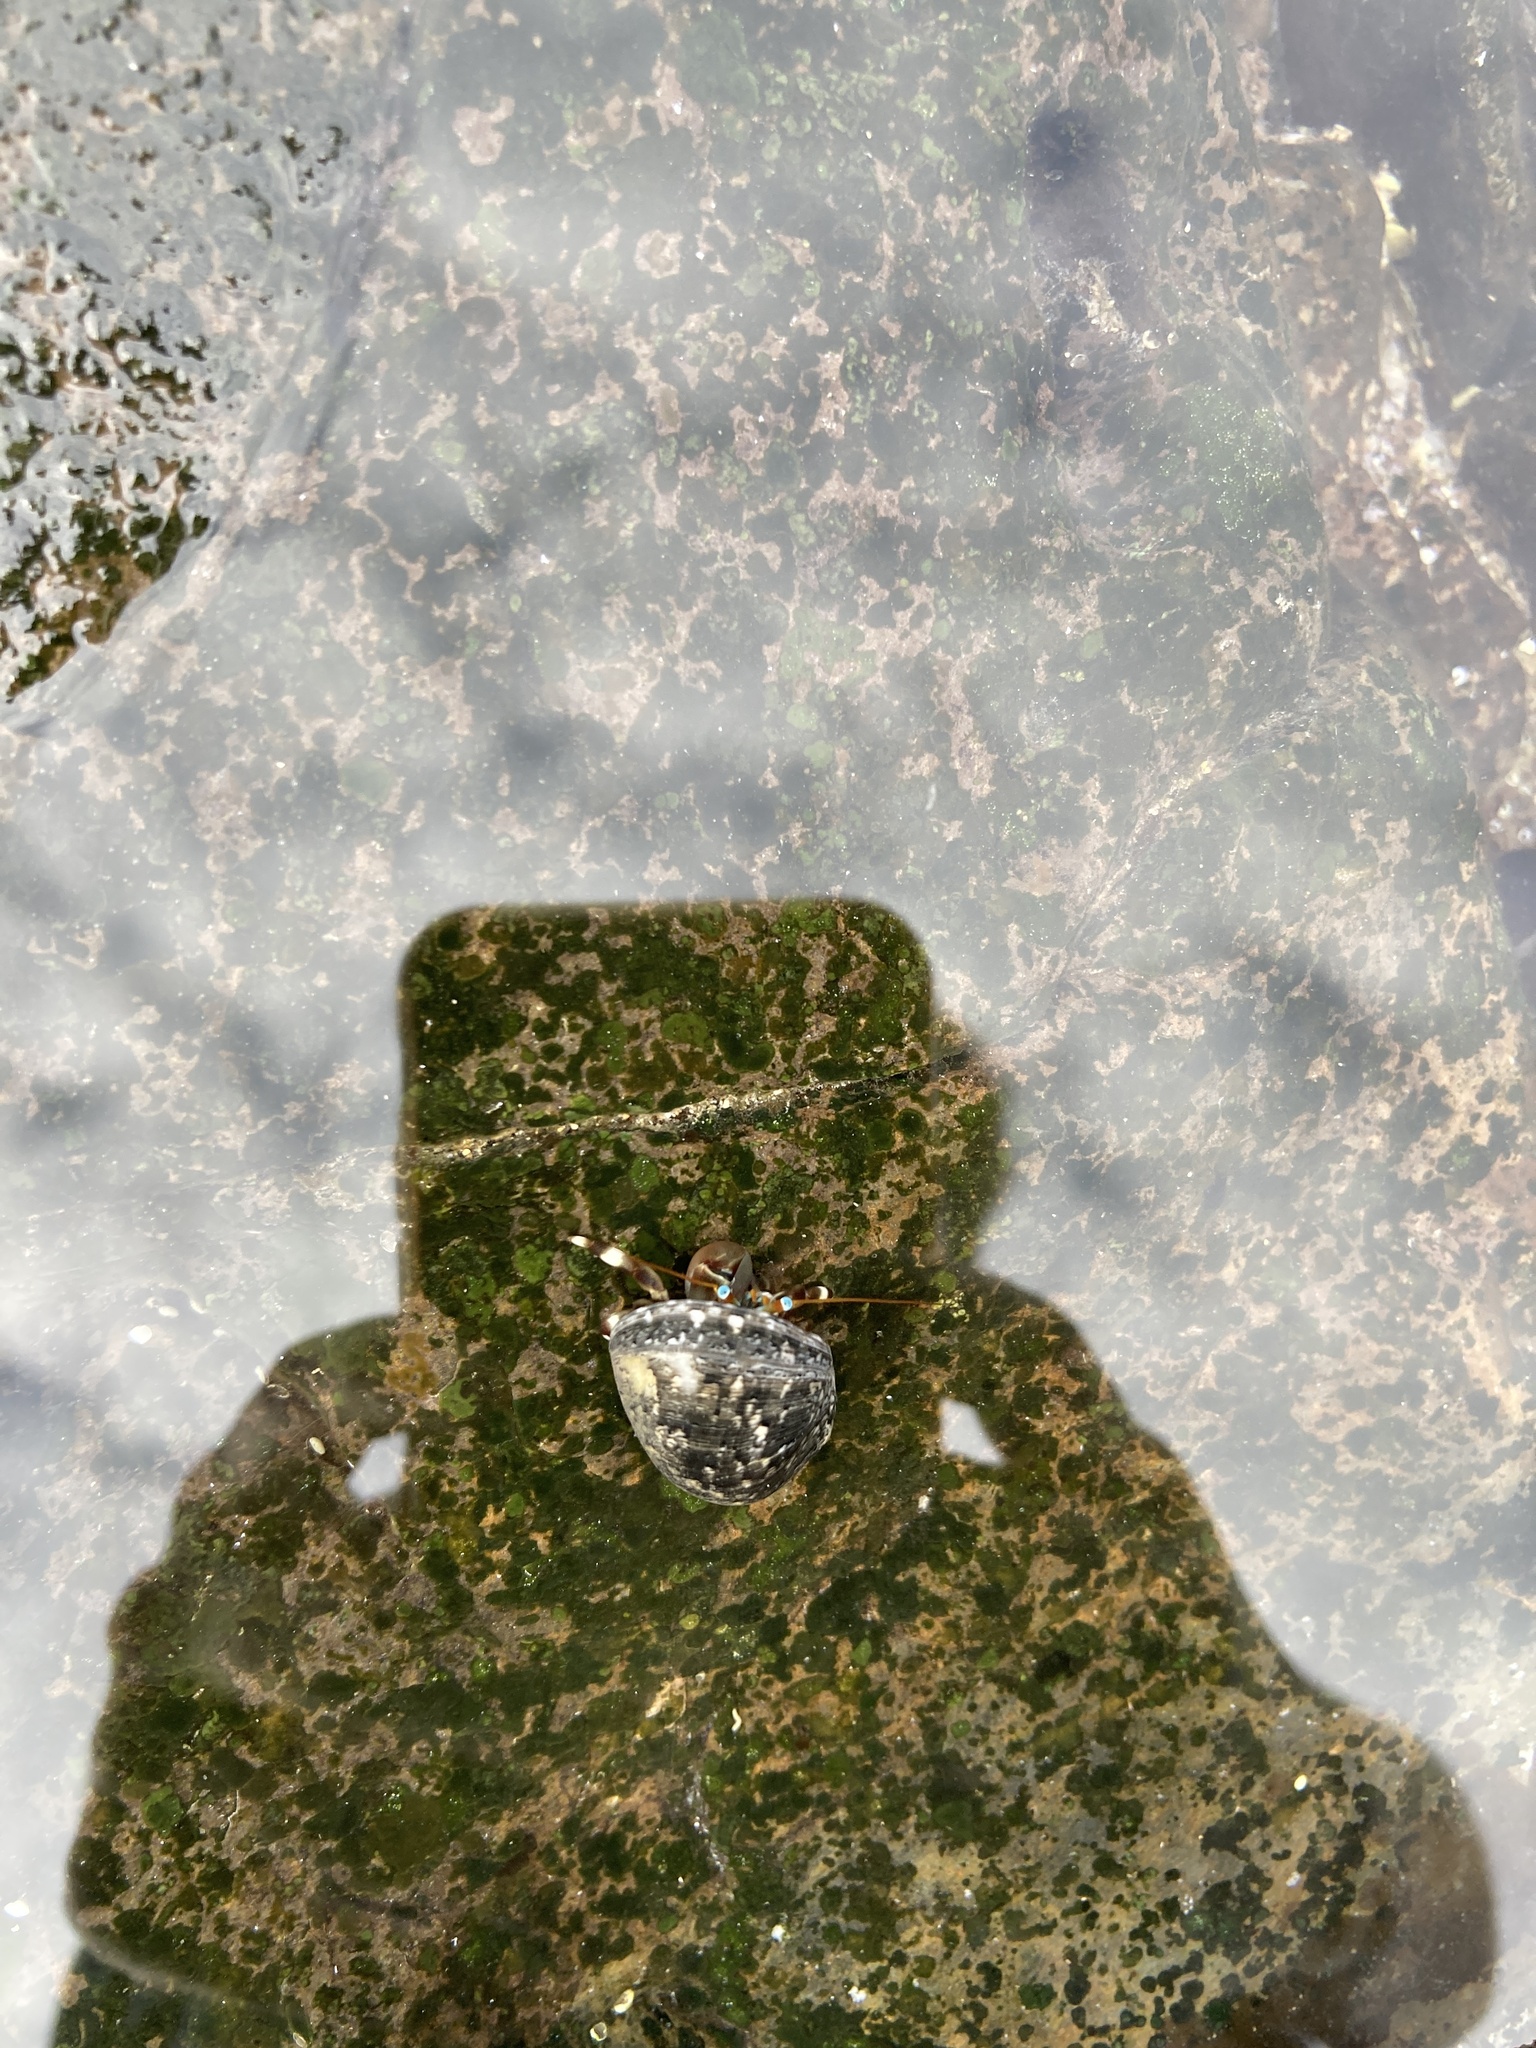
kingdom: Animalia
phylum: Arthropoda
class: Malacostraca
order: Decapoda
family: Diogenidae
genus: Calcinus
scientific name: Calcinus seurati
